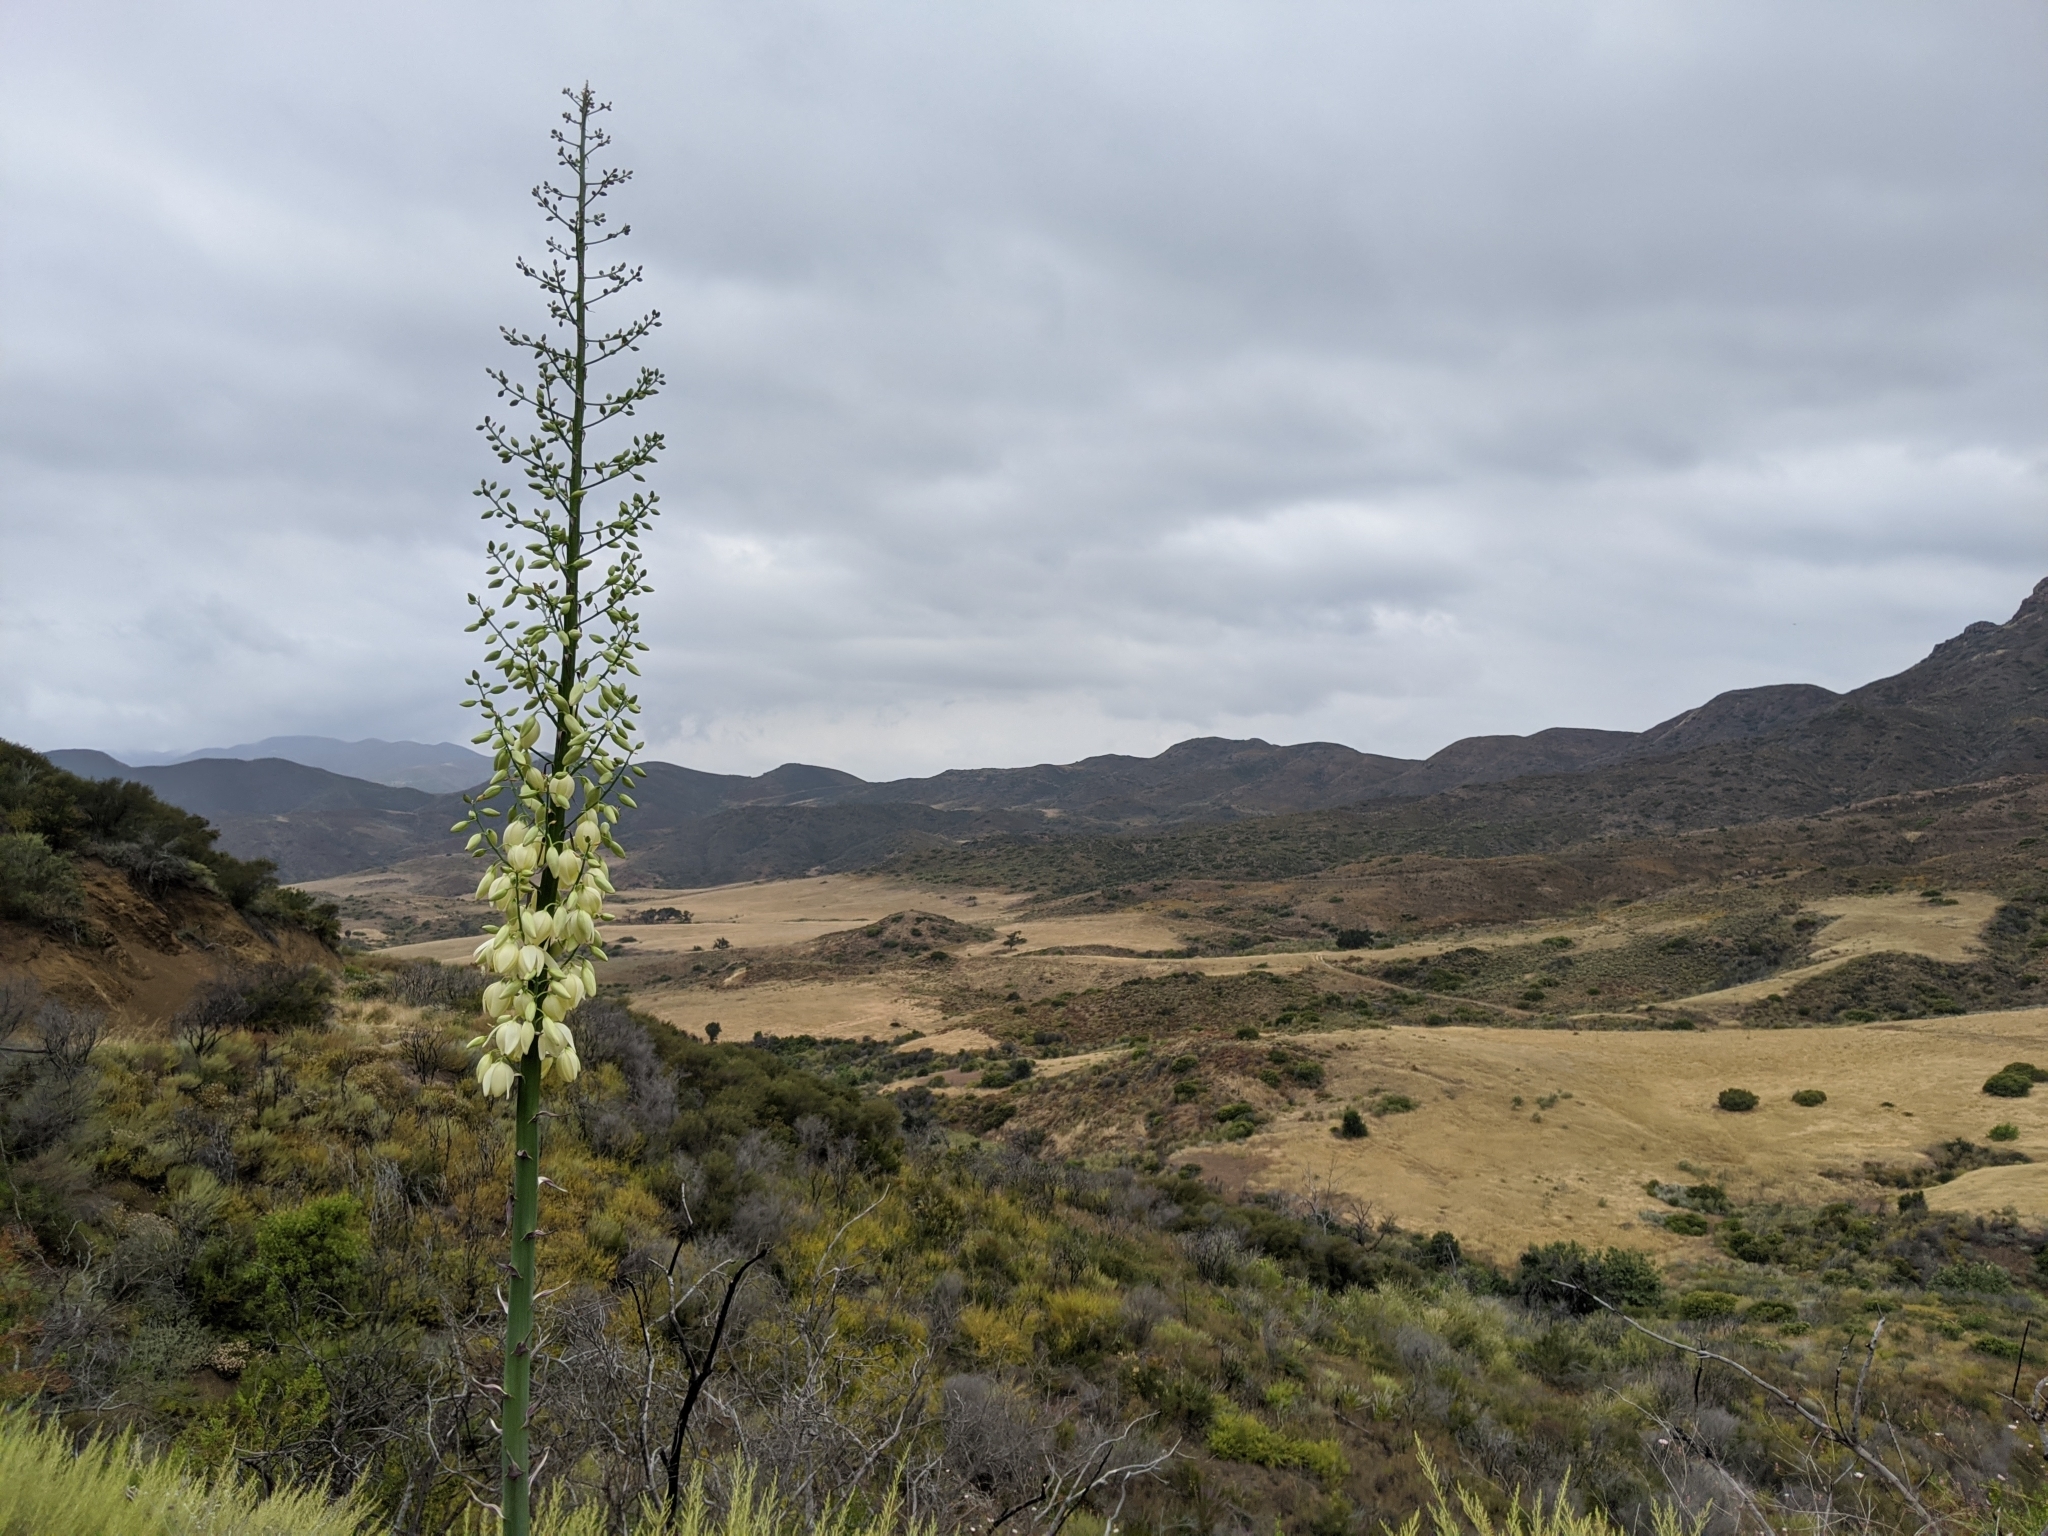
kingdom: Plantae
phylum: Tracheophyta
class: Liliopsida
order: Asparagales
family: Asparagaceae
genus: Hesperoyucca
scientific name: Hesperoyucca whipplei
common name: Our lord's-candle
